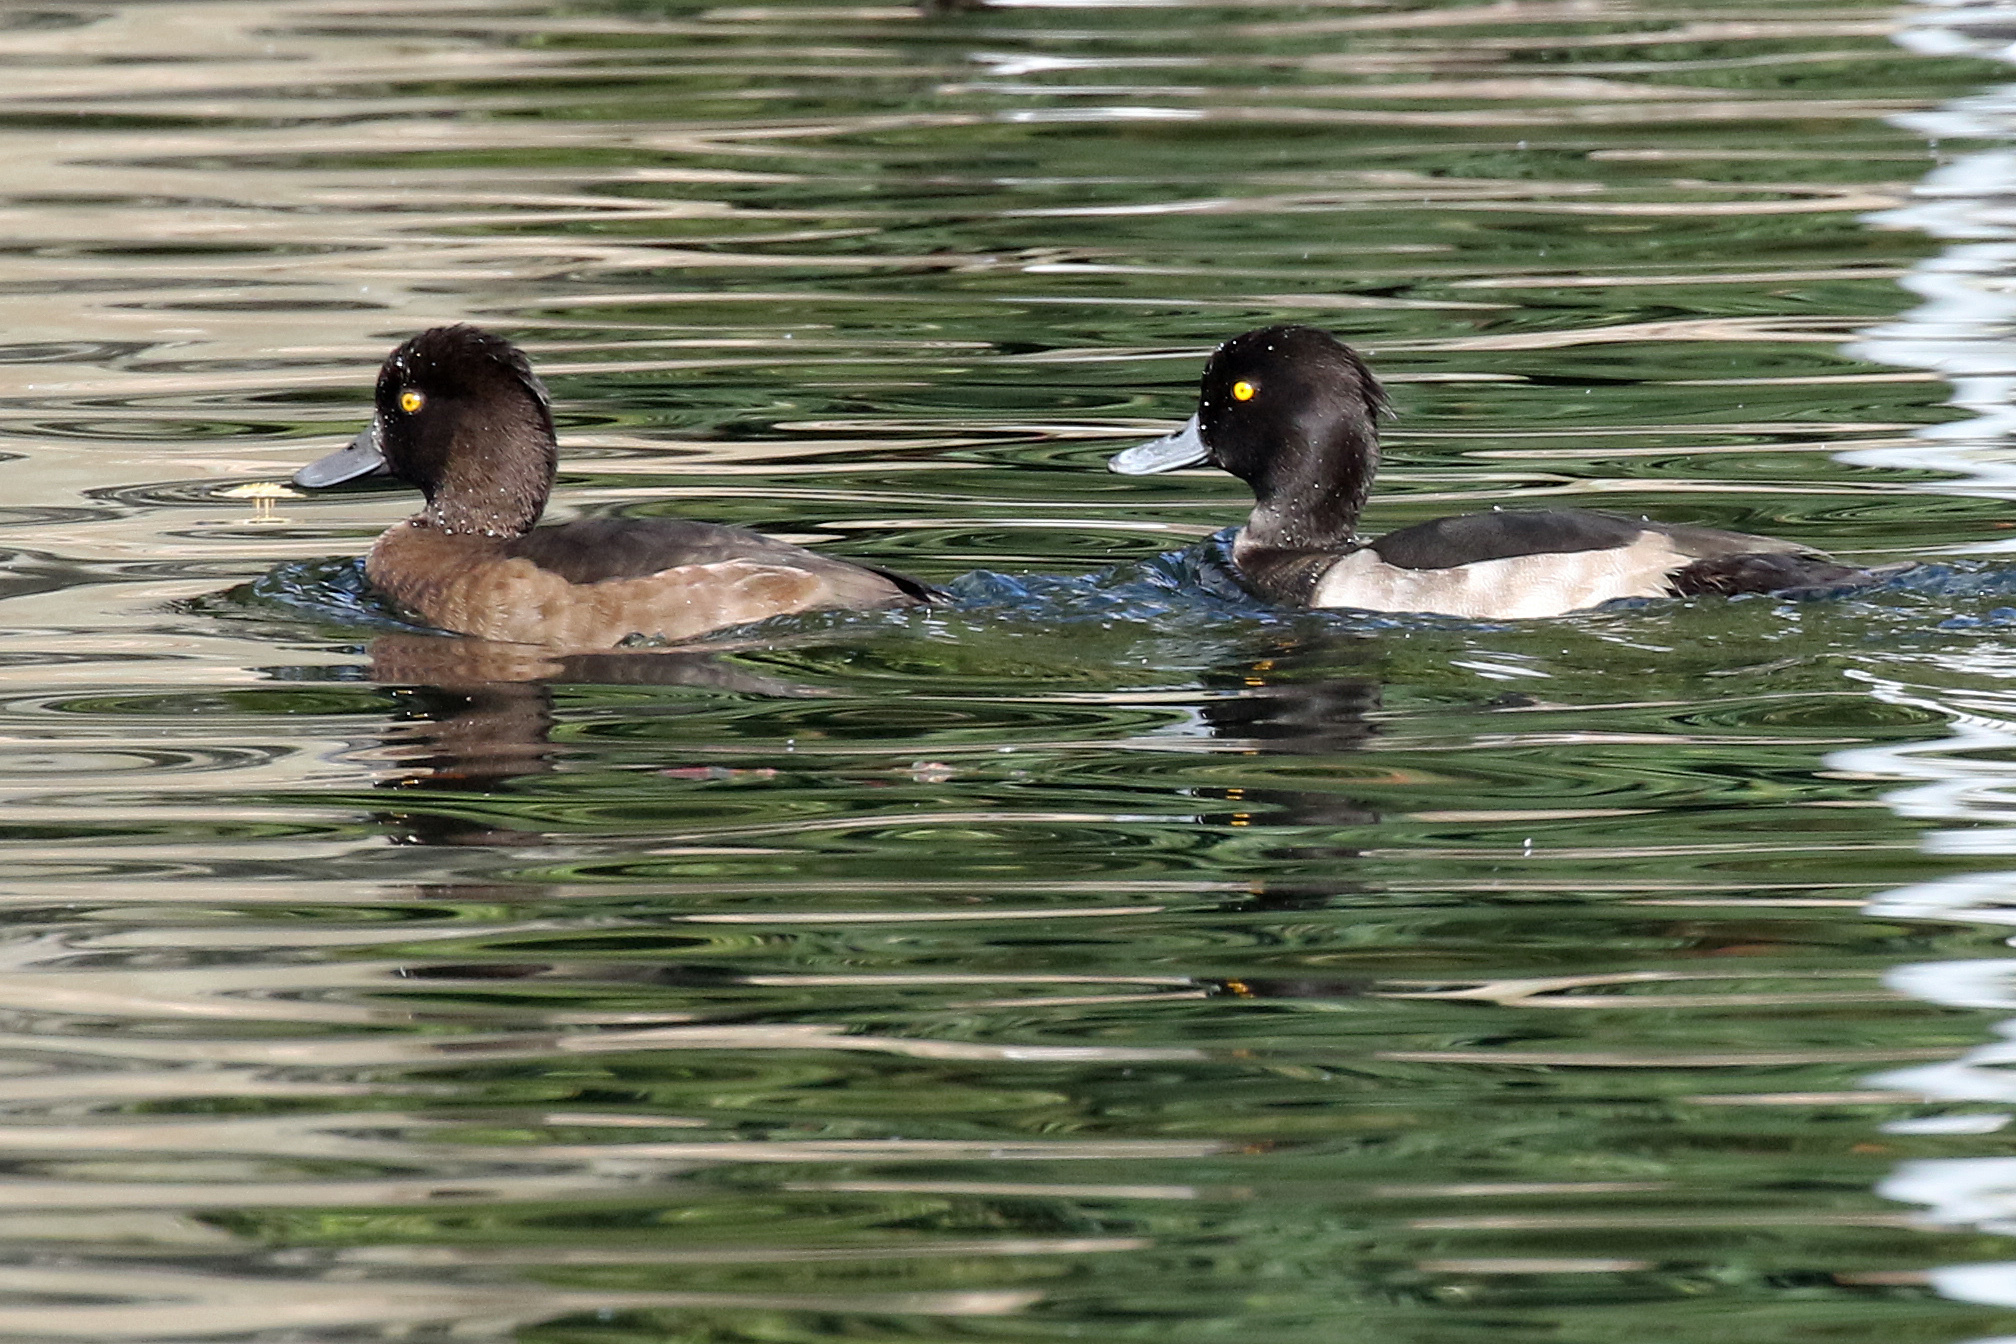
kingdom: Animalia
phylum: Chordata
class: Aves
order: Anseriformes
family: Anatidae
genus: Aythya
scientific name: Aythya fuligula
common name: Tufted duck
